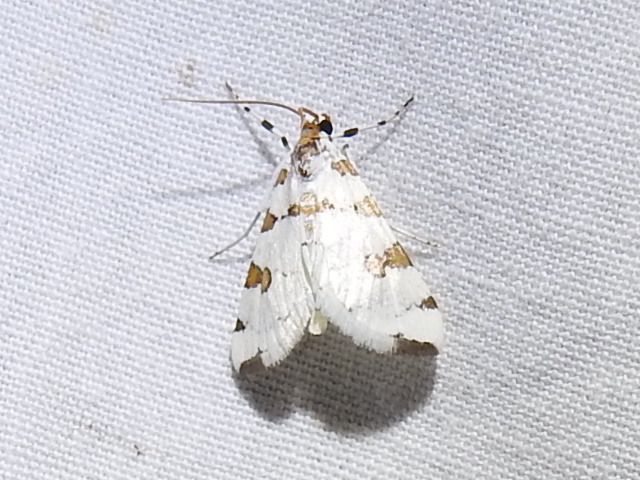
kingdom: Animalia
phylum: Arthropoda
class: Insecta
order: Lepidoptera
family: Crambidae
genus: Conchylodes
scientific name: Conchylodes
